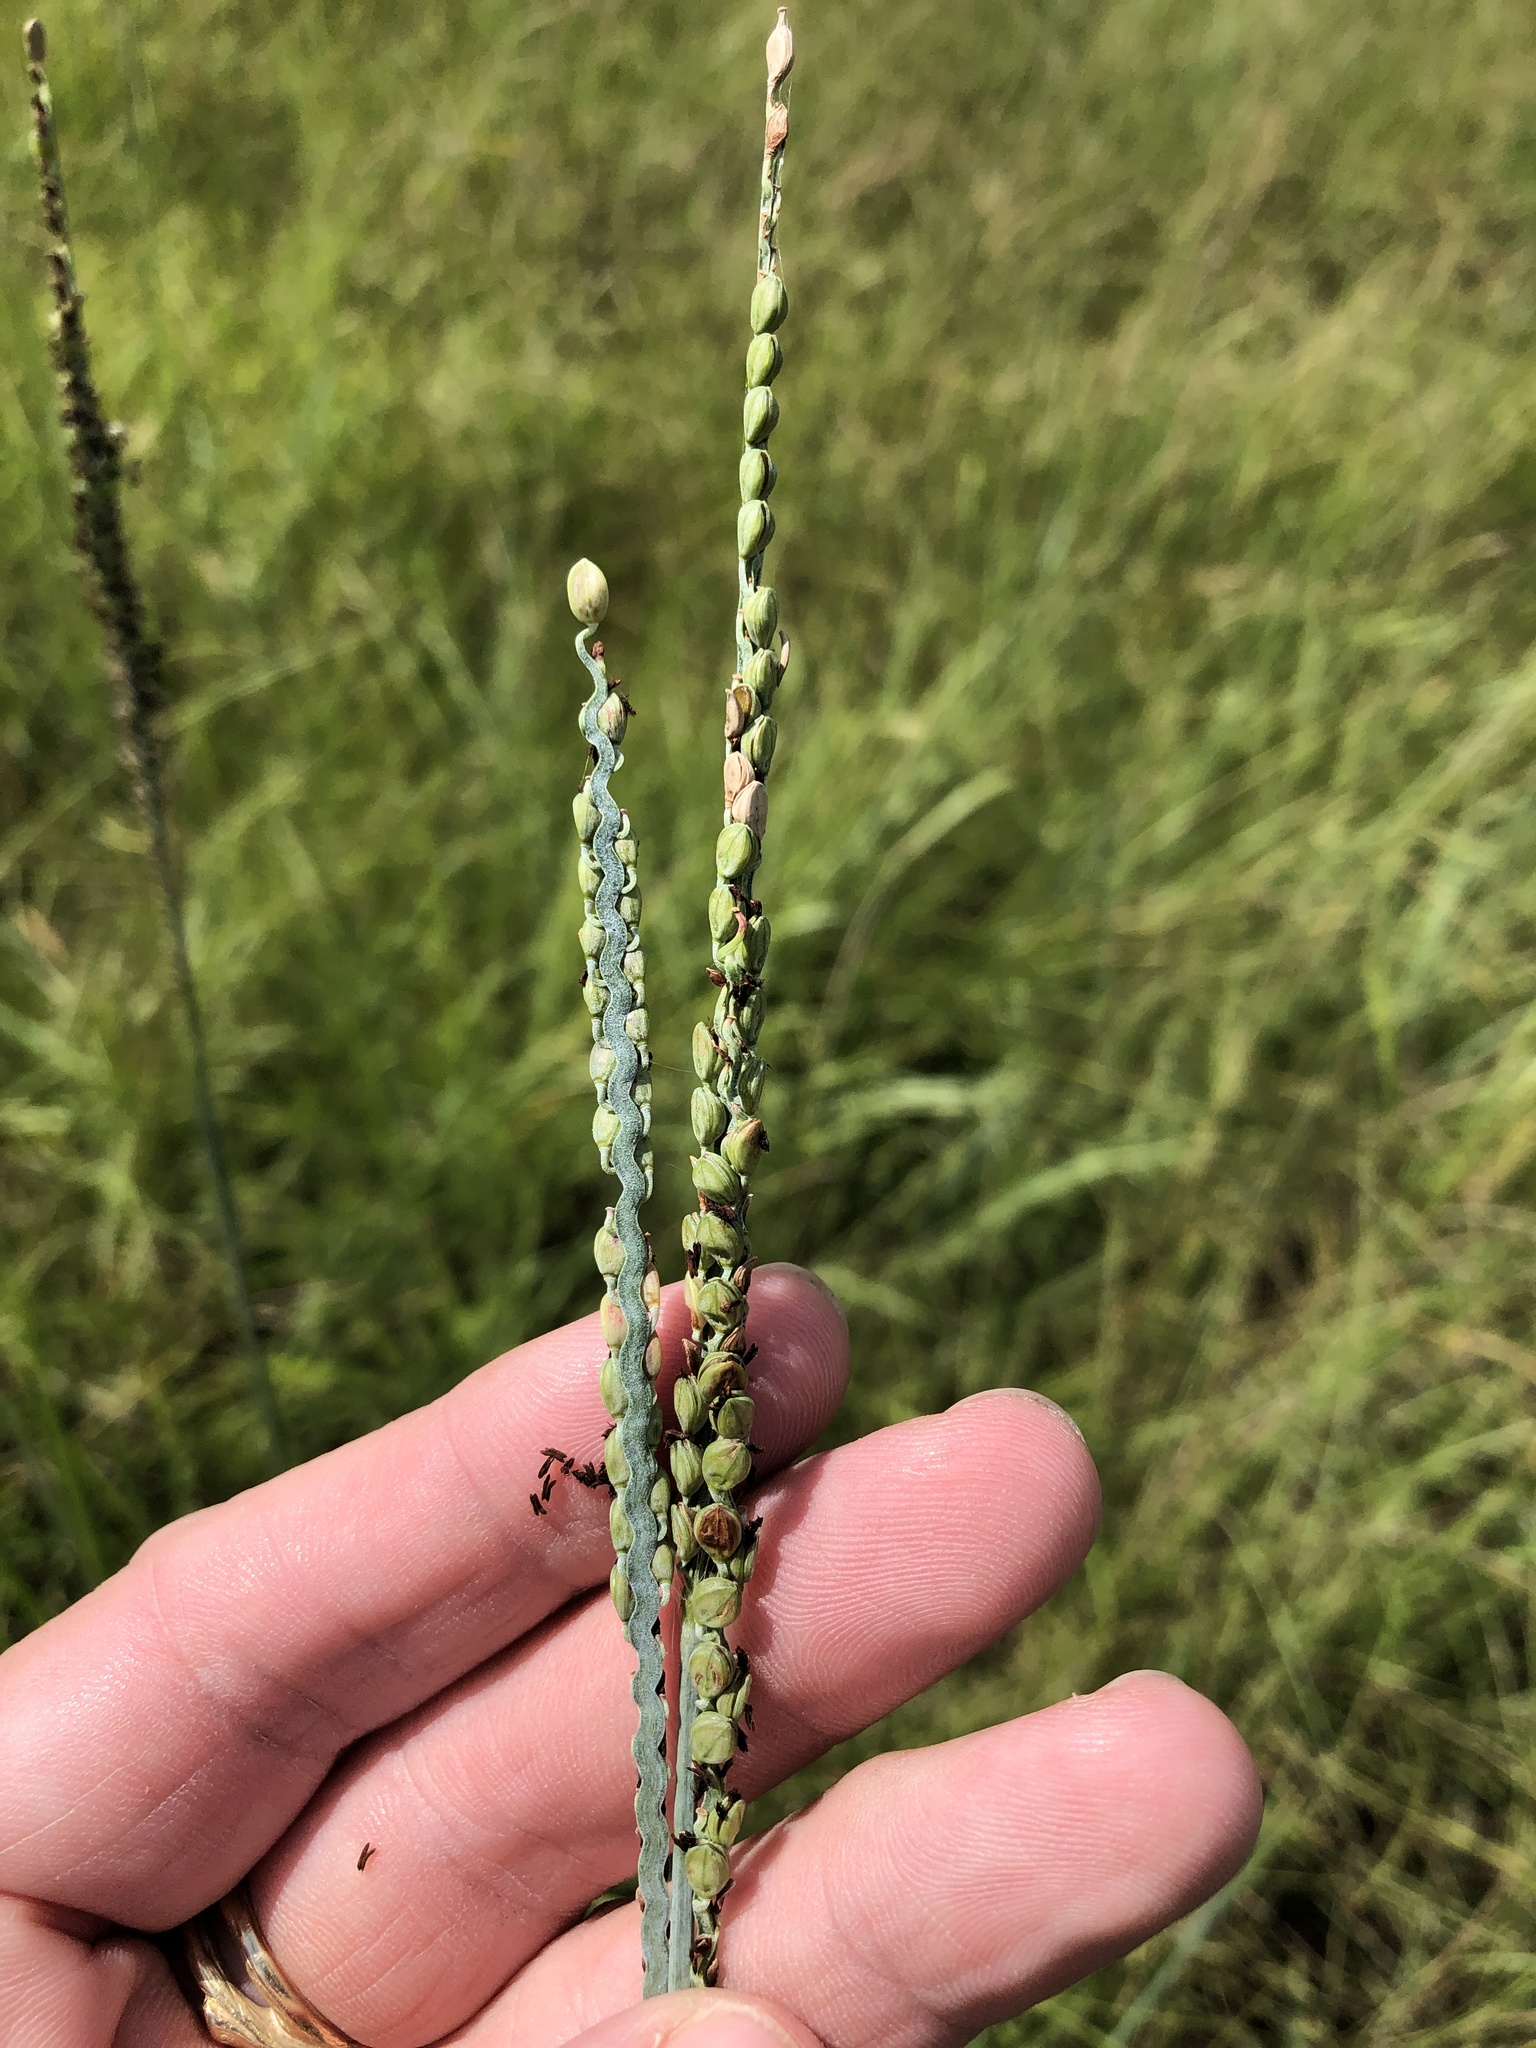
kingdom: Plantae
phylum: Tracheophyta
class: Liliopsida
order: Poales
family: Poaceae
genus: Paspalum
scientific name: Paspalum floridanum
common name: Florida paspalum
